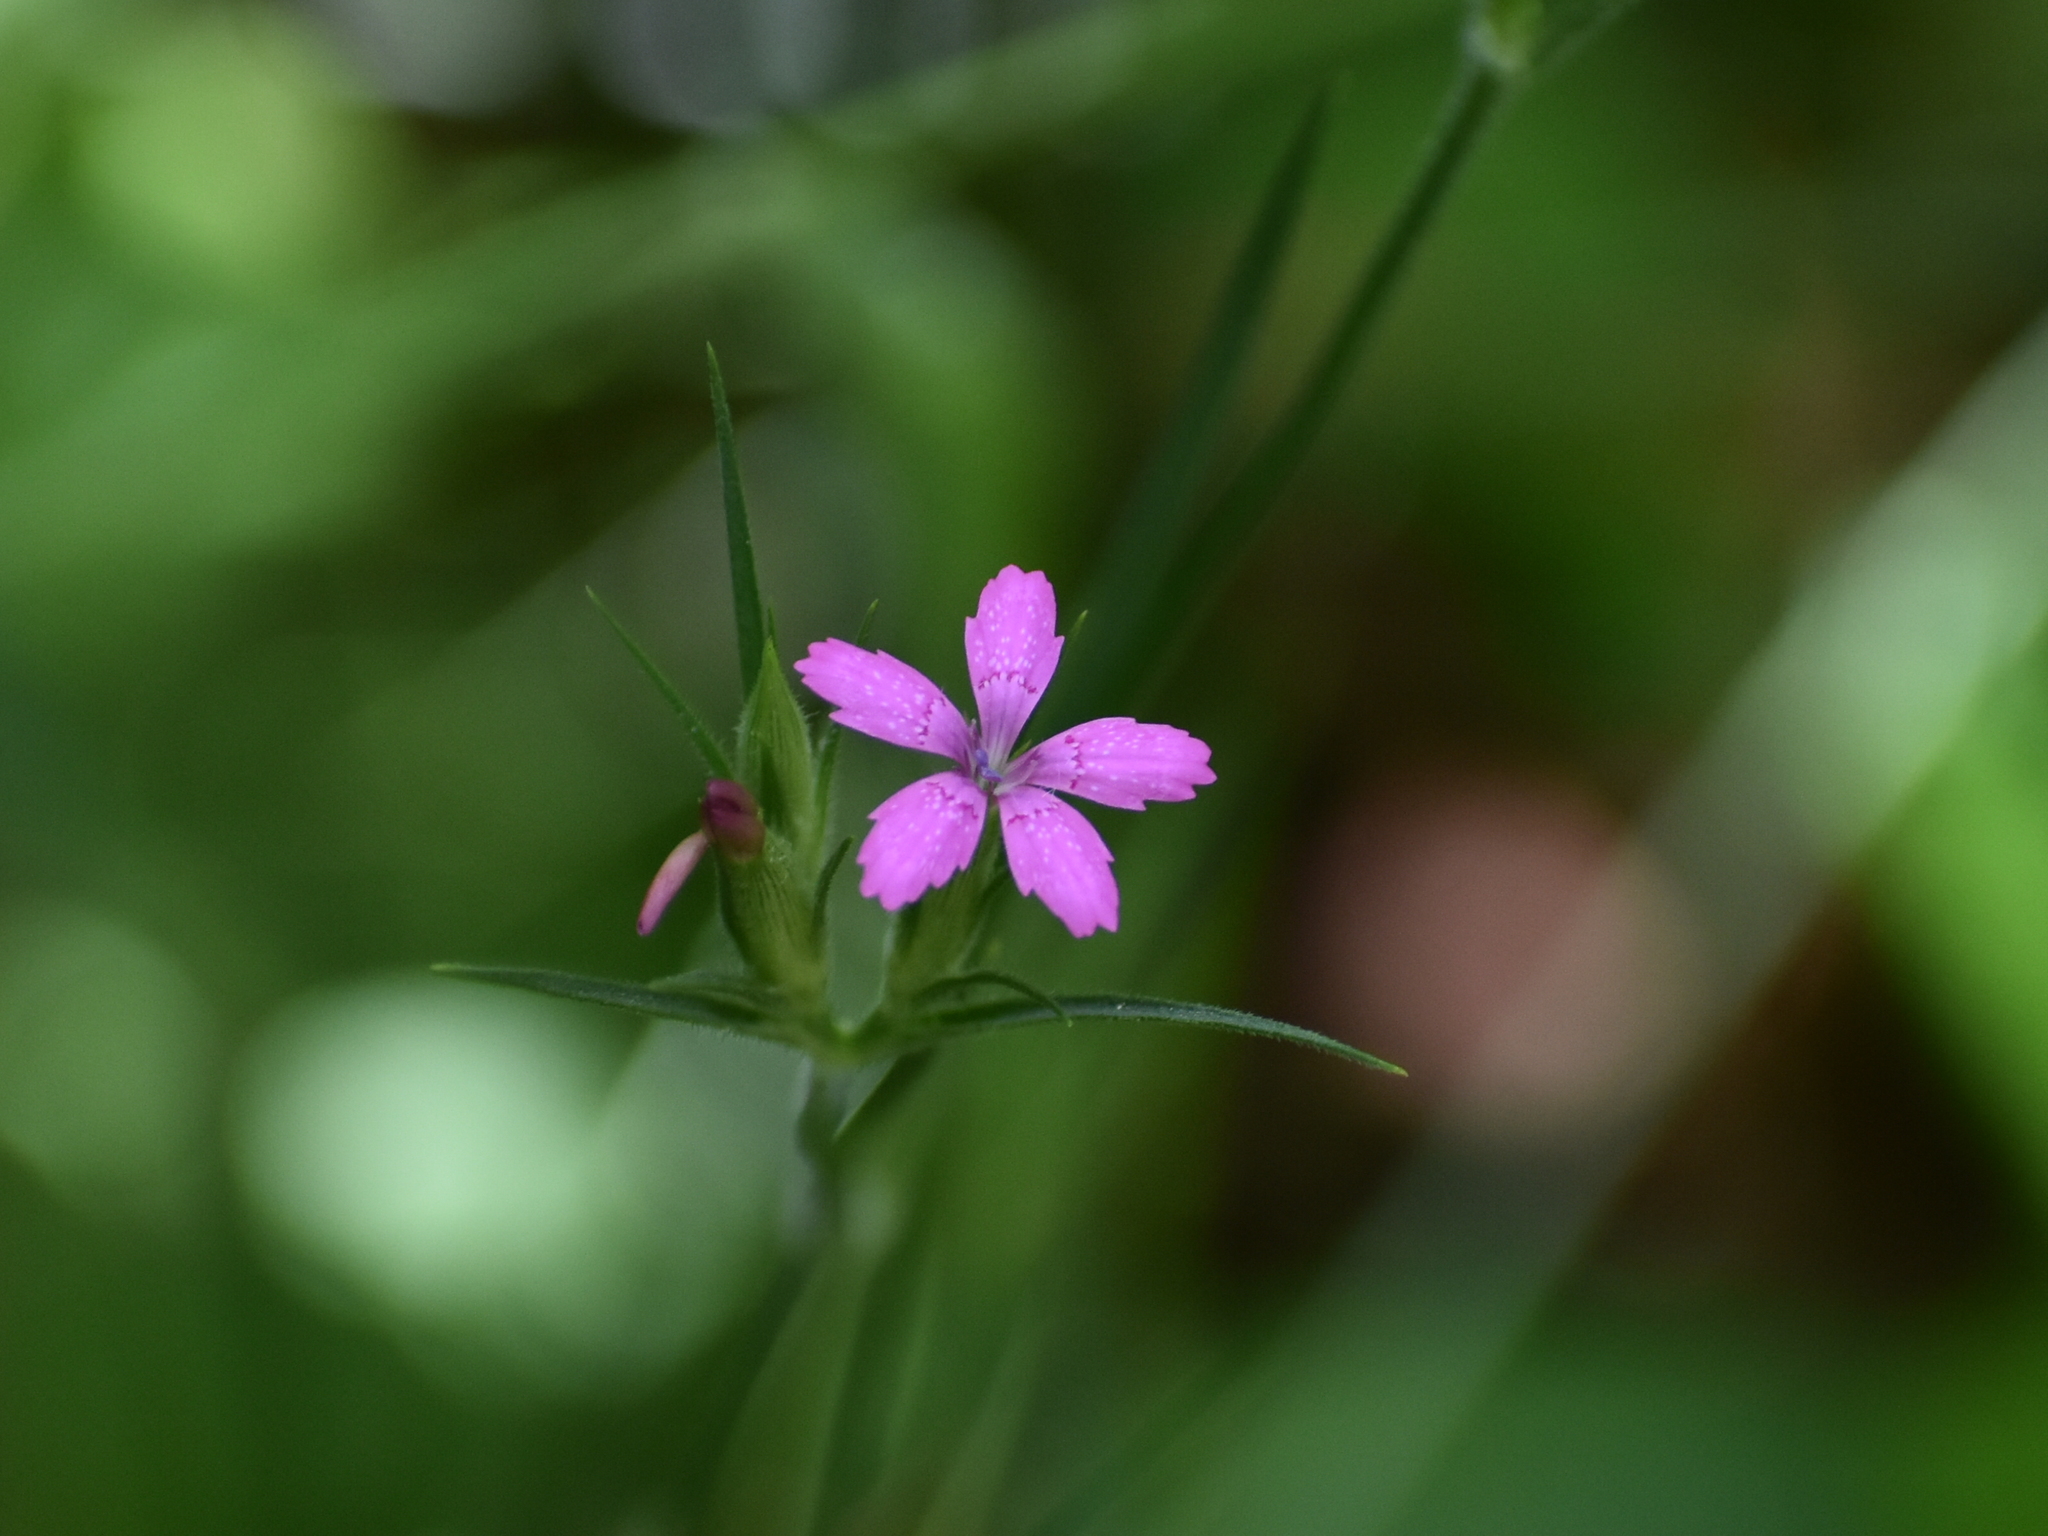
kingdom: Plantae
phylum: Tracheophyta
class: Magnoliopsida
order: Caryophyllales
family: Caryophyllaceae
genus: Dianthus
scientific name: Dianthus armeria
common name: Deptford pink
